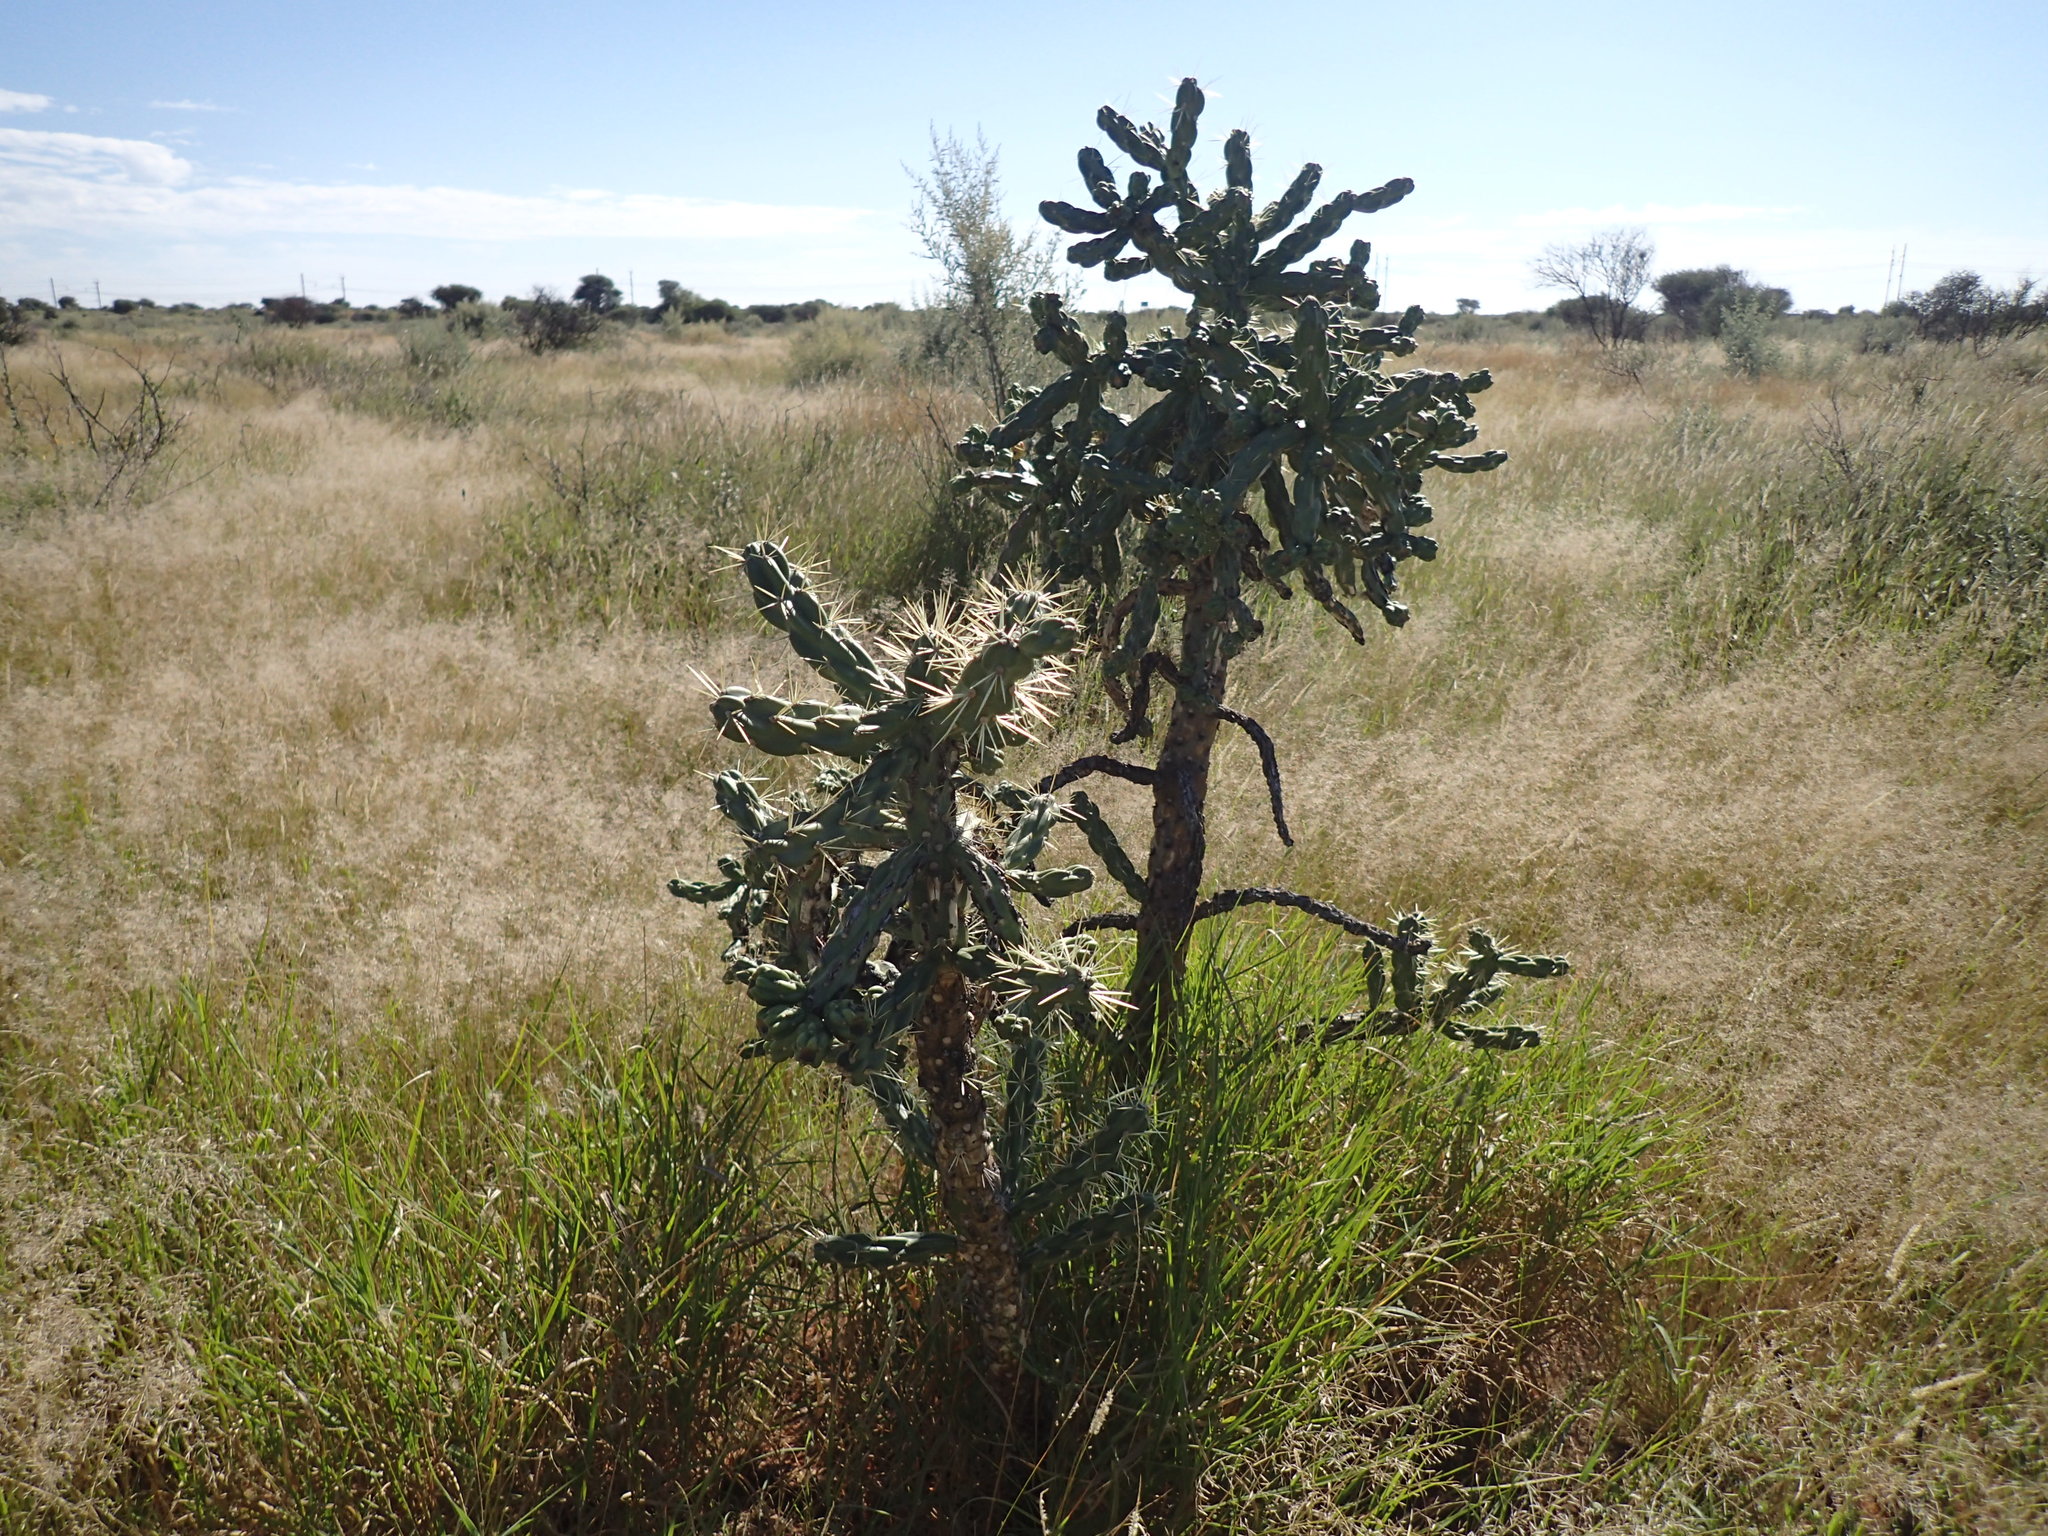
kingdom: Plantae
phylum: Tracheophyta
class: Magnoliopsida
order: Caryophyllales
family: Cactaceae
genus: Cylindropuntia
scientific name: Cylindropuntia imbricata
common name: Candelabrum cactus
